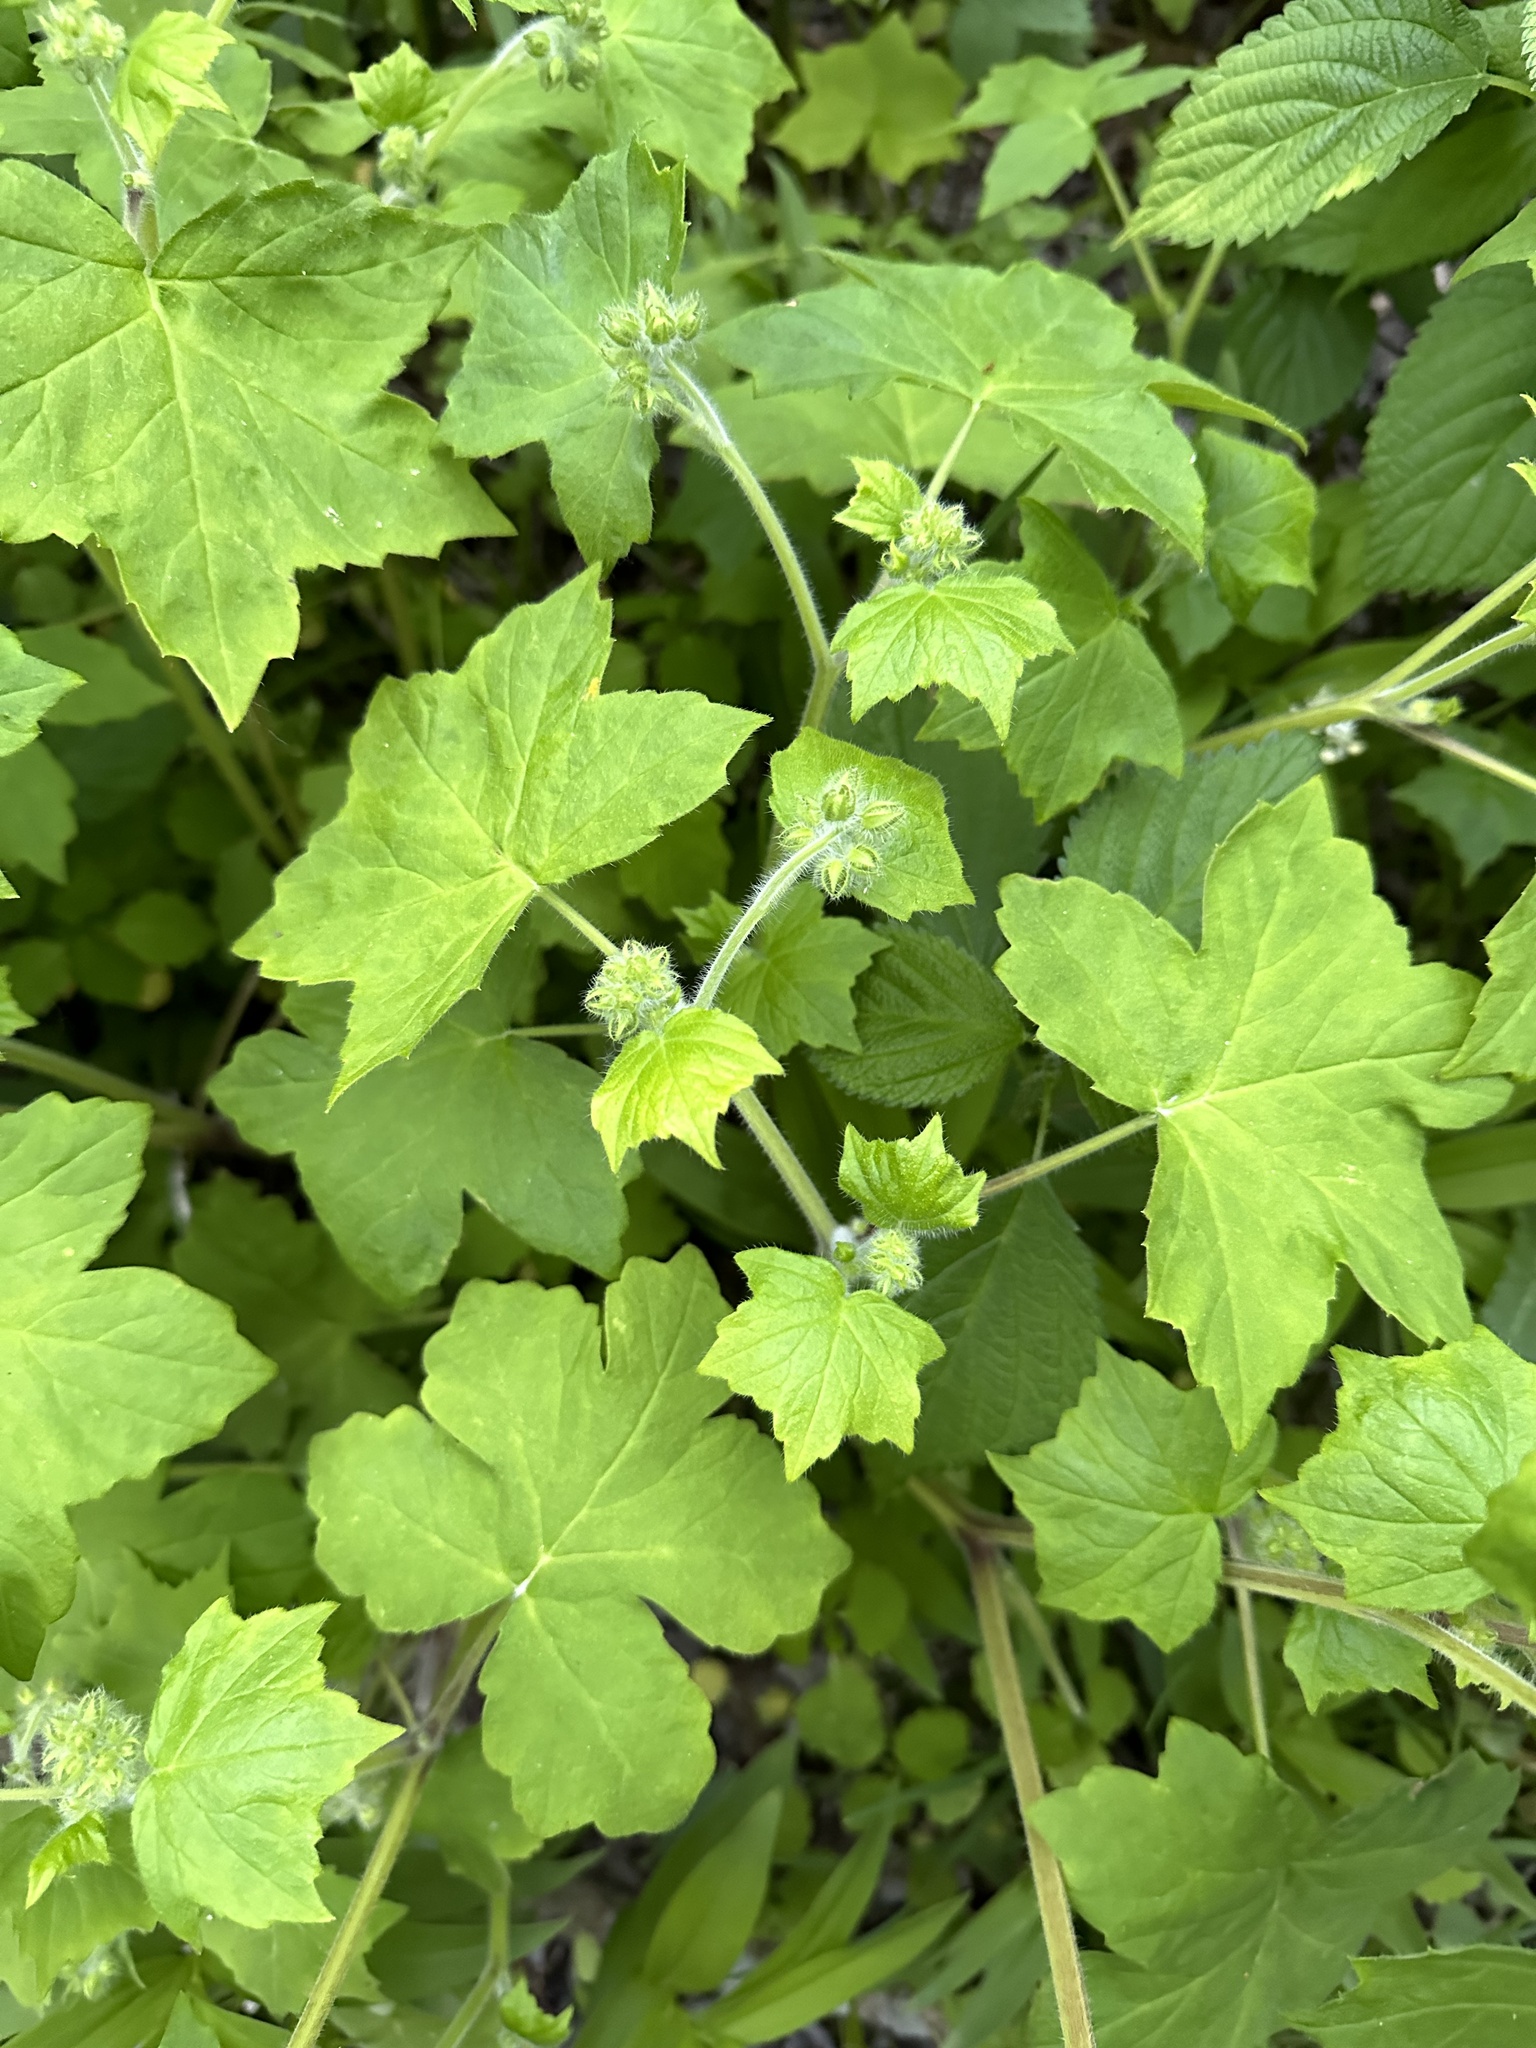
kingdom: Plantae
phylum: Tracheophyta
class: Magnoliopsida
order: Boraginales
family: Hydrophyllaceae
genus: Hydrophyllum
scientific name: Hydrophyllum appendiculatum
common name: Appendaged waterleaf
